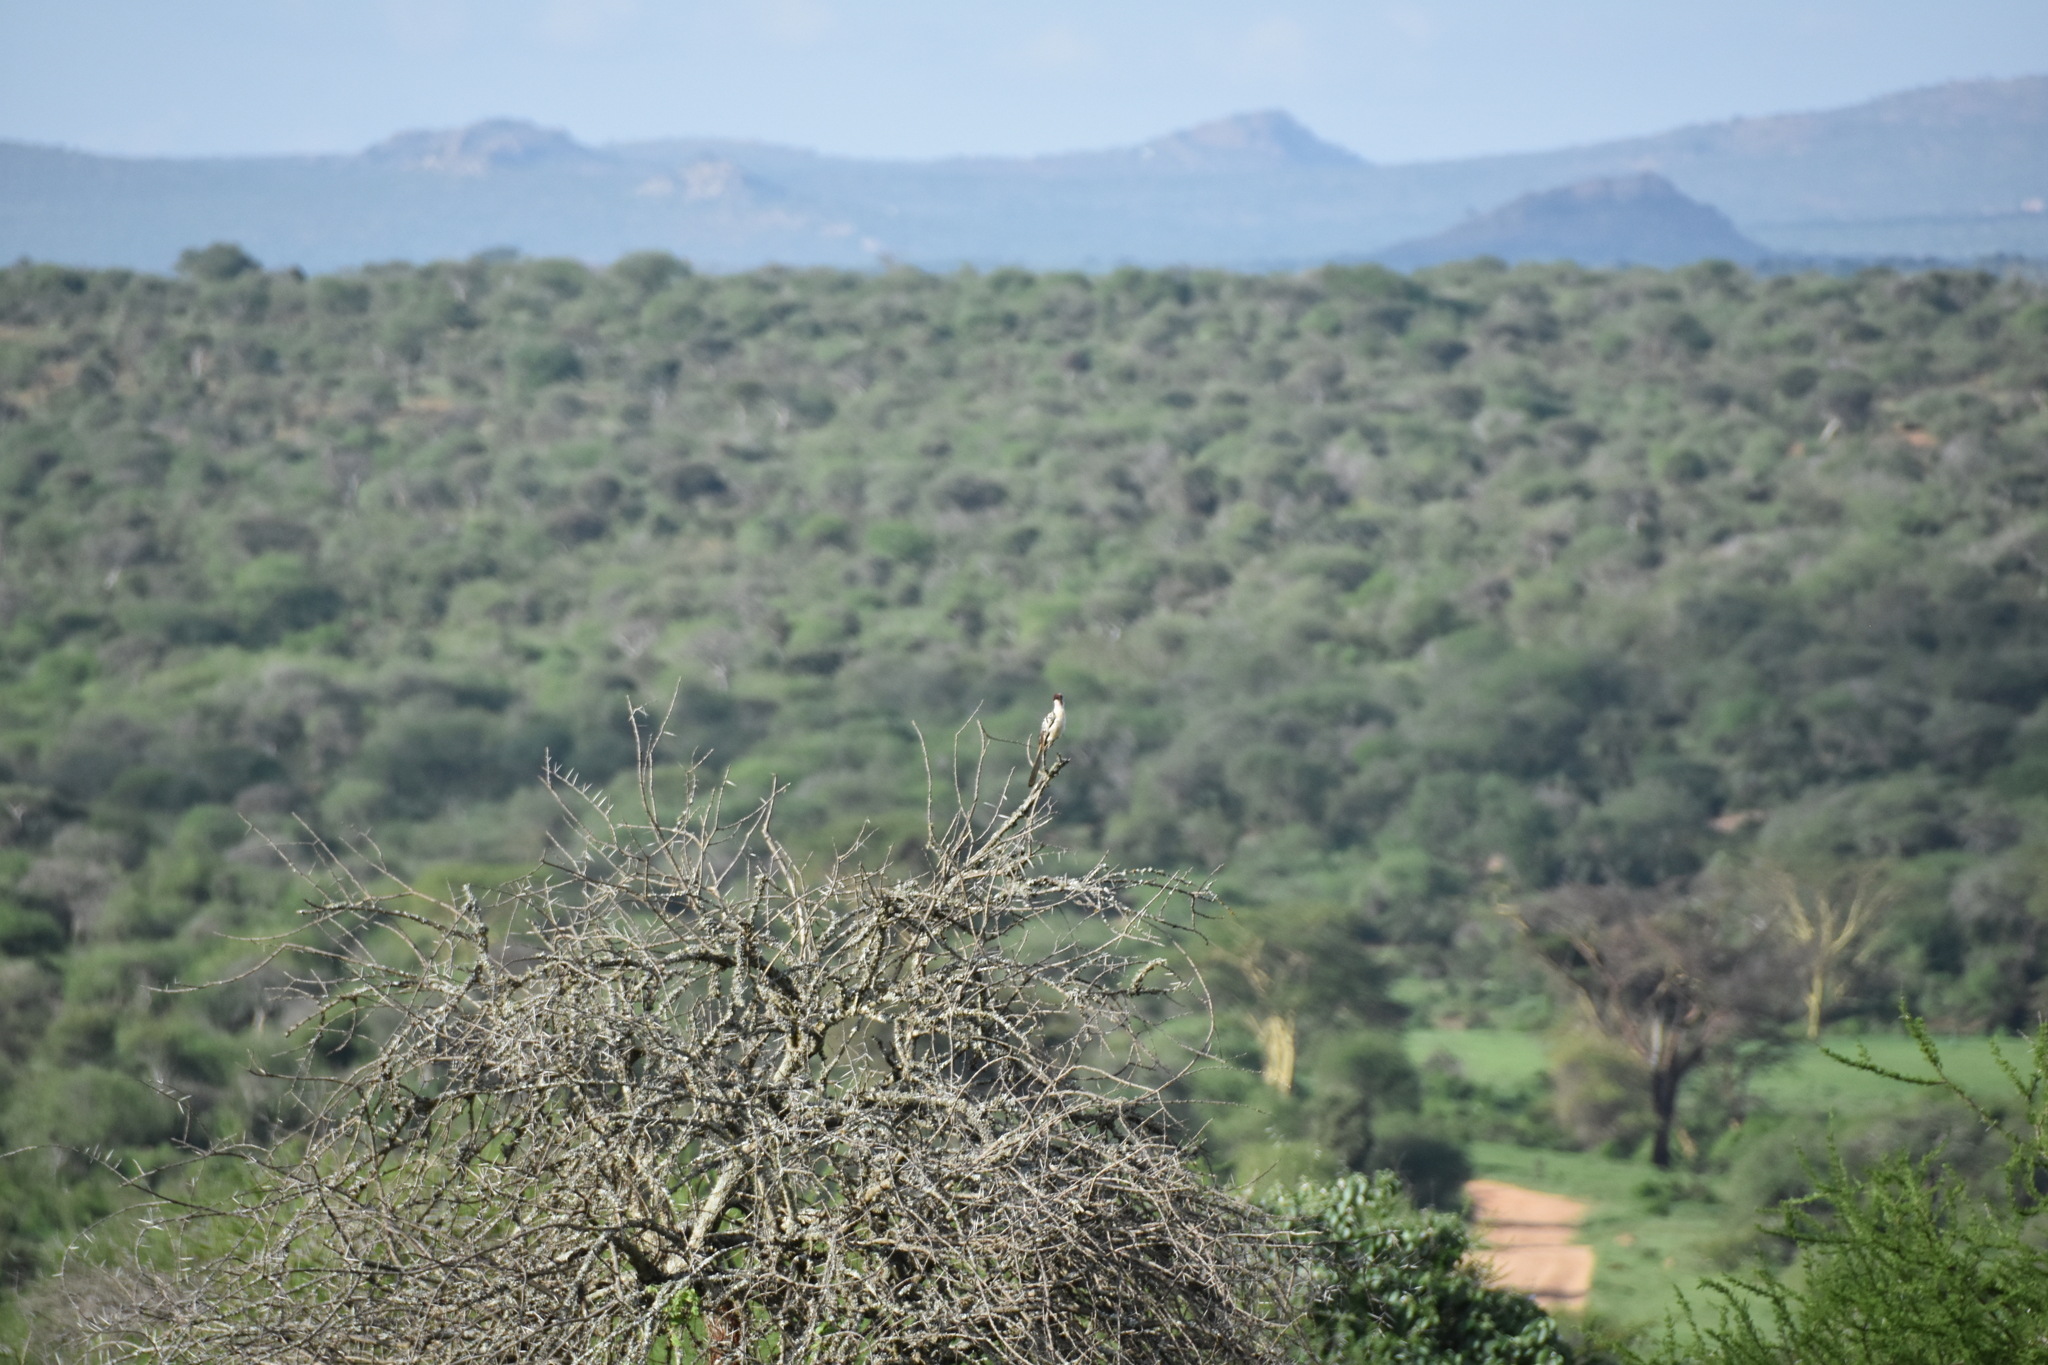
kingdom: Animalia
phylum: Chordata
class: Aves
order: Bucerotiformes
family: Bucerotidae
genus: Tockus
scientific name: Tockus erythrorhynchus
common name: Northern red-billed hornbill
